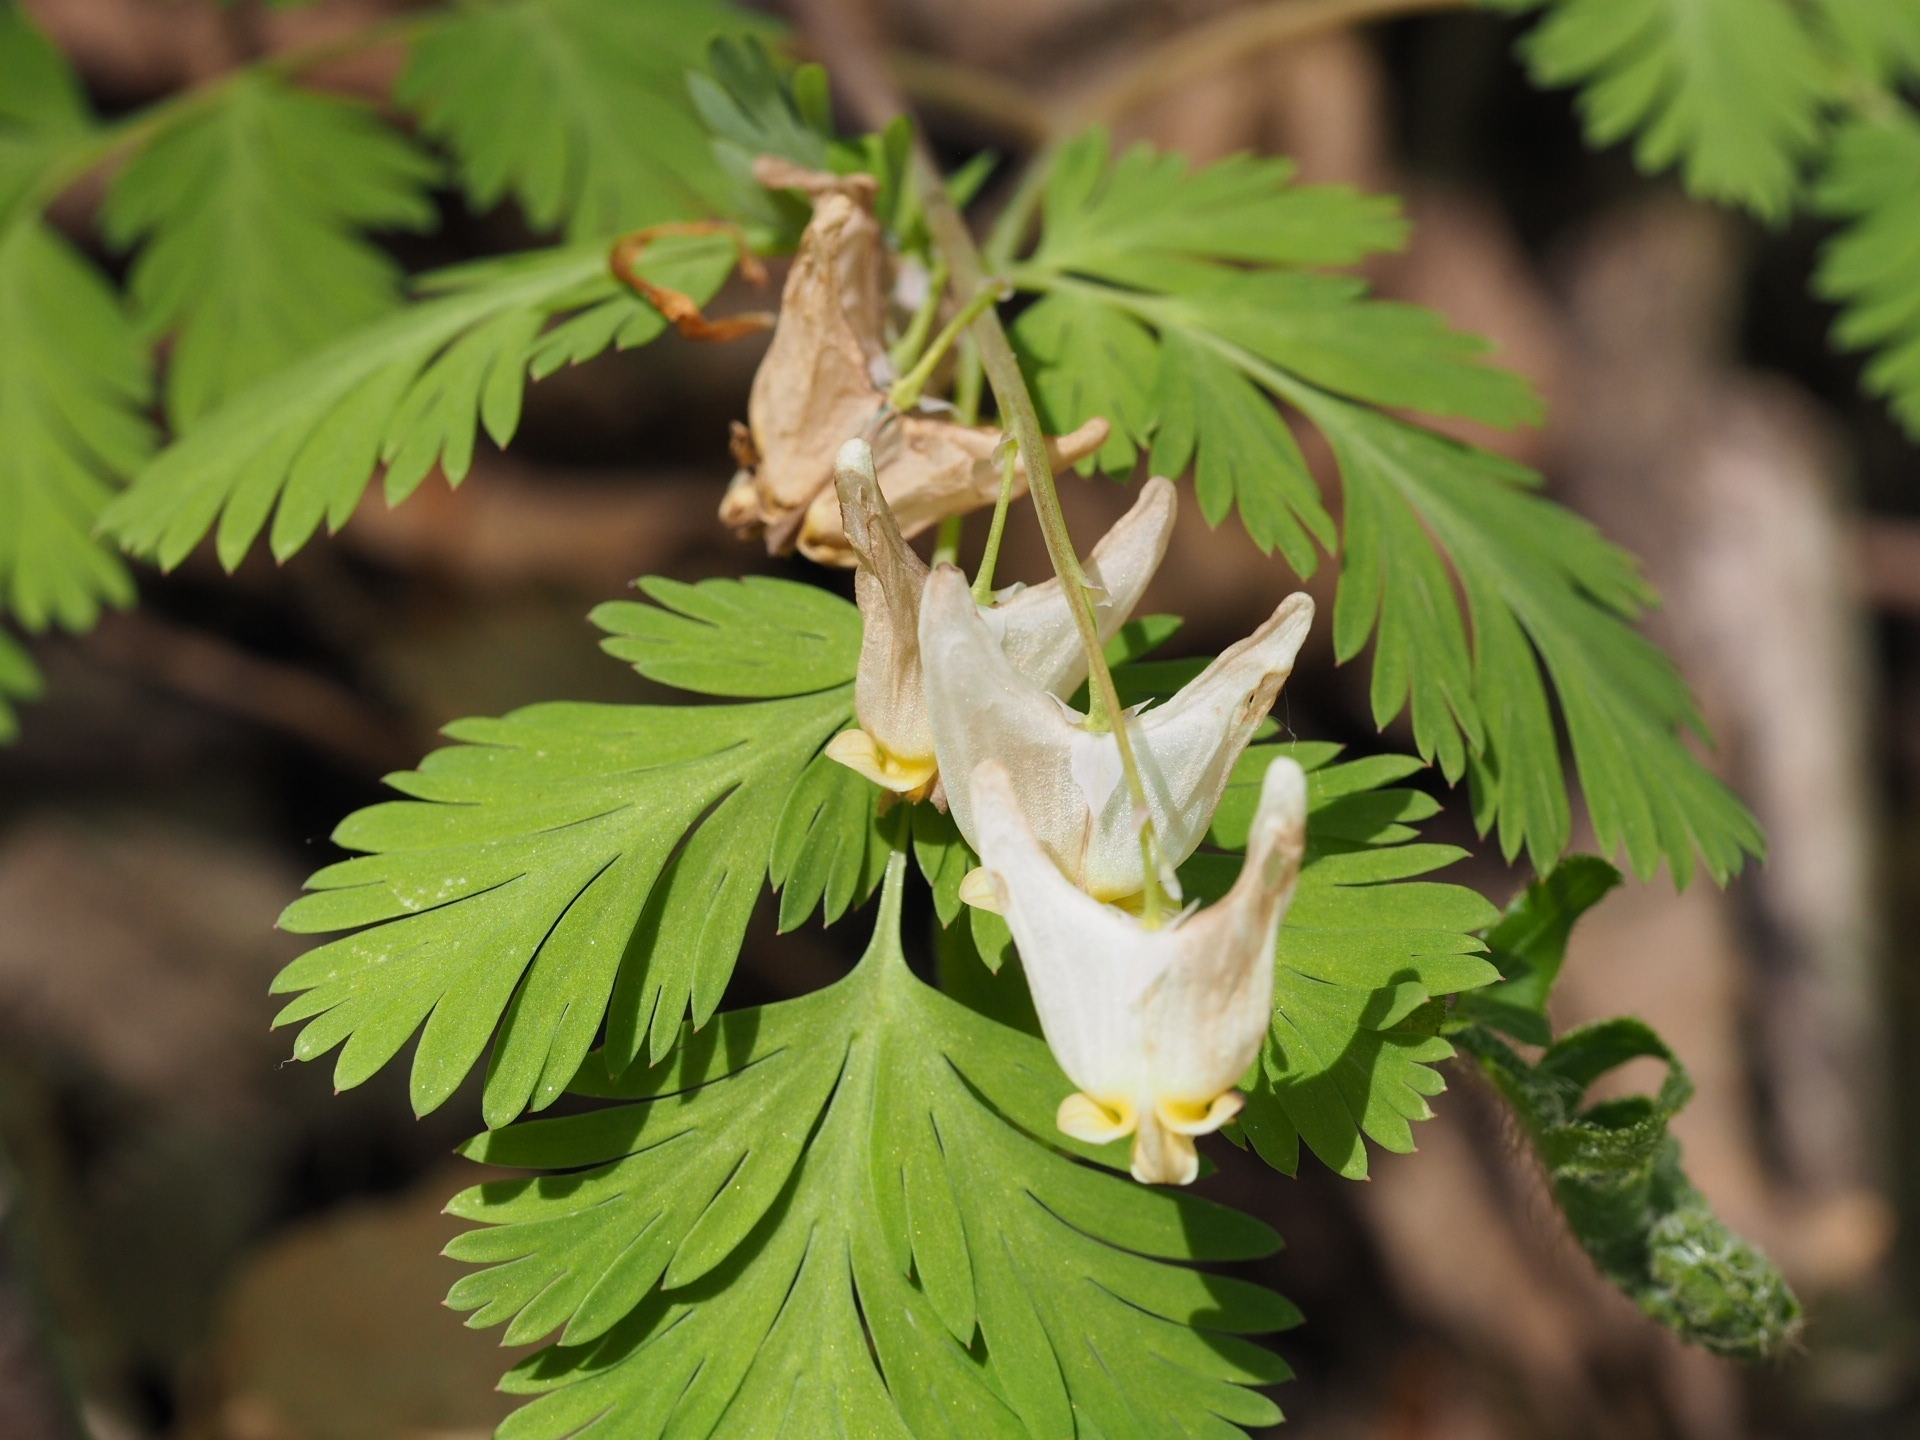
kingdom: Plantae
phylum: Tracheophyta
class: Magnoliopsida
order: Ranunculales
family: Papaveraceae
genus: Dicentra
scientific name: Dicentra cucullaria
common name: Dutchman's breeches
